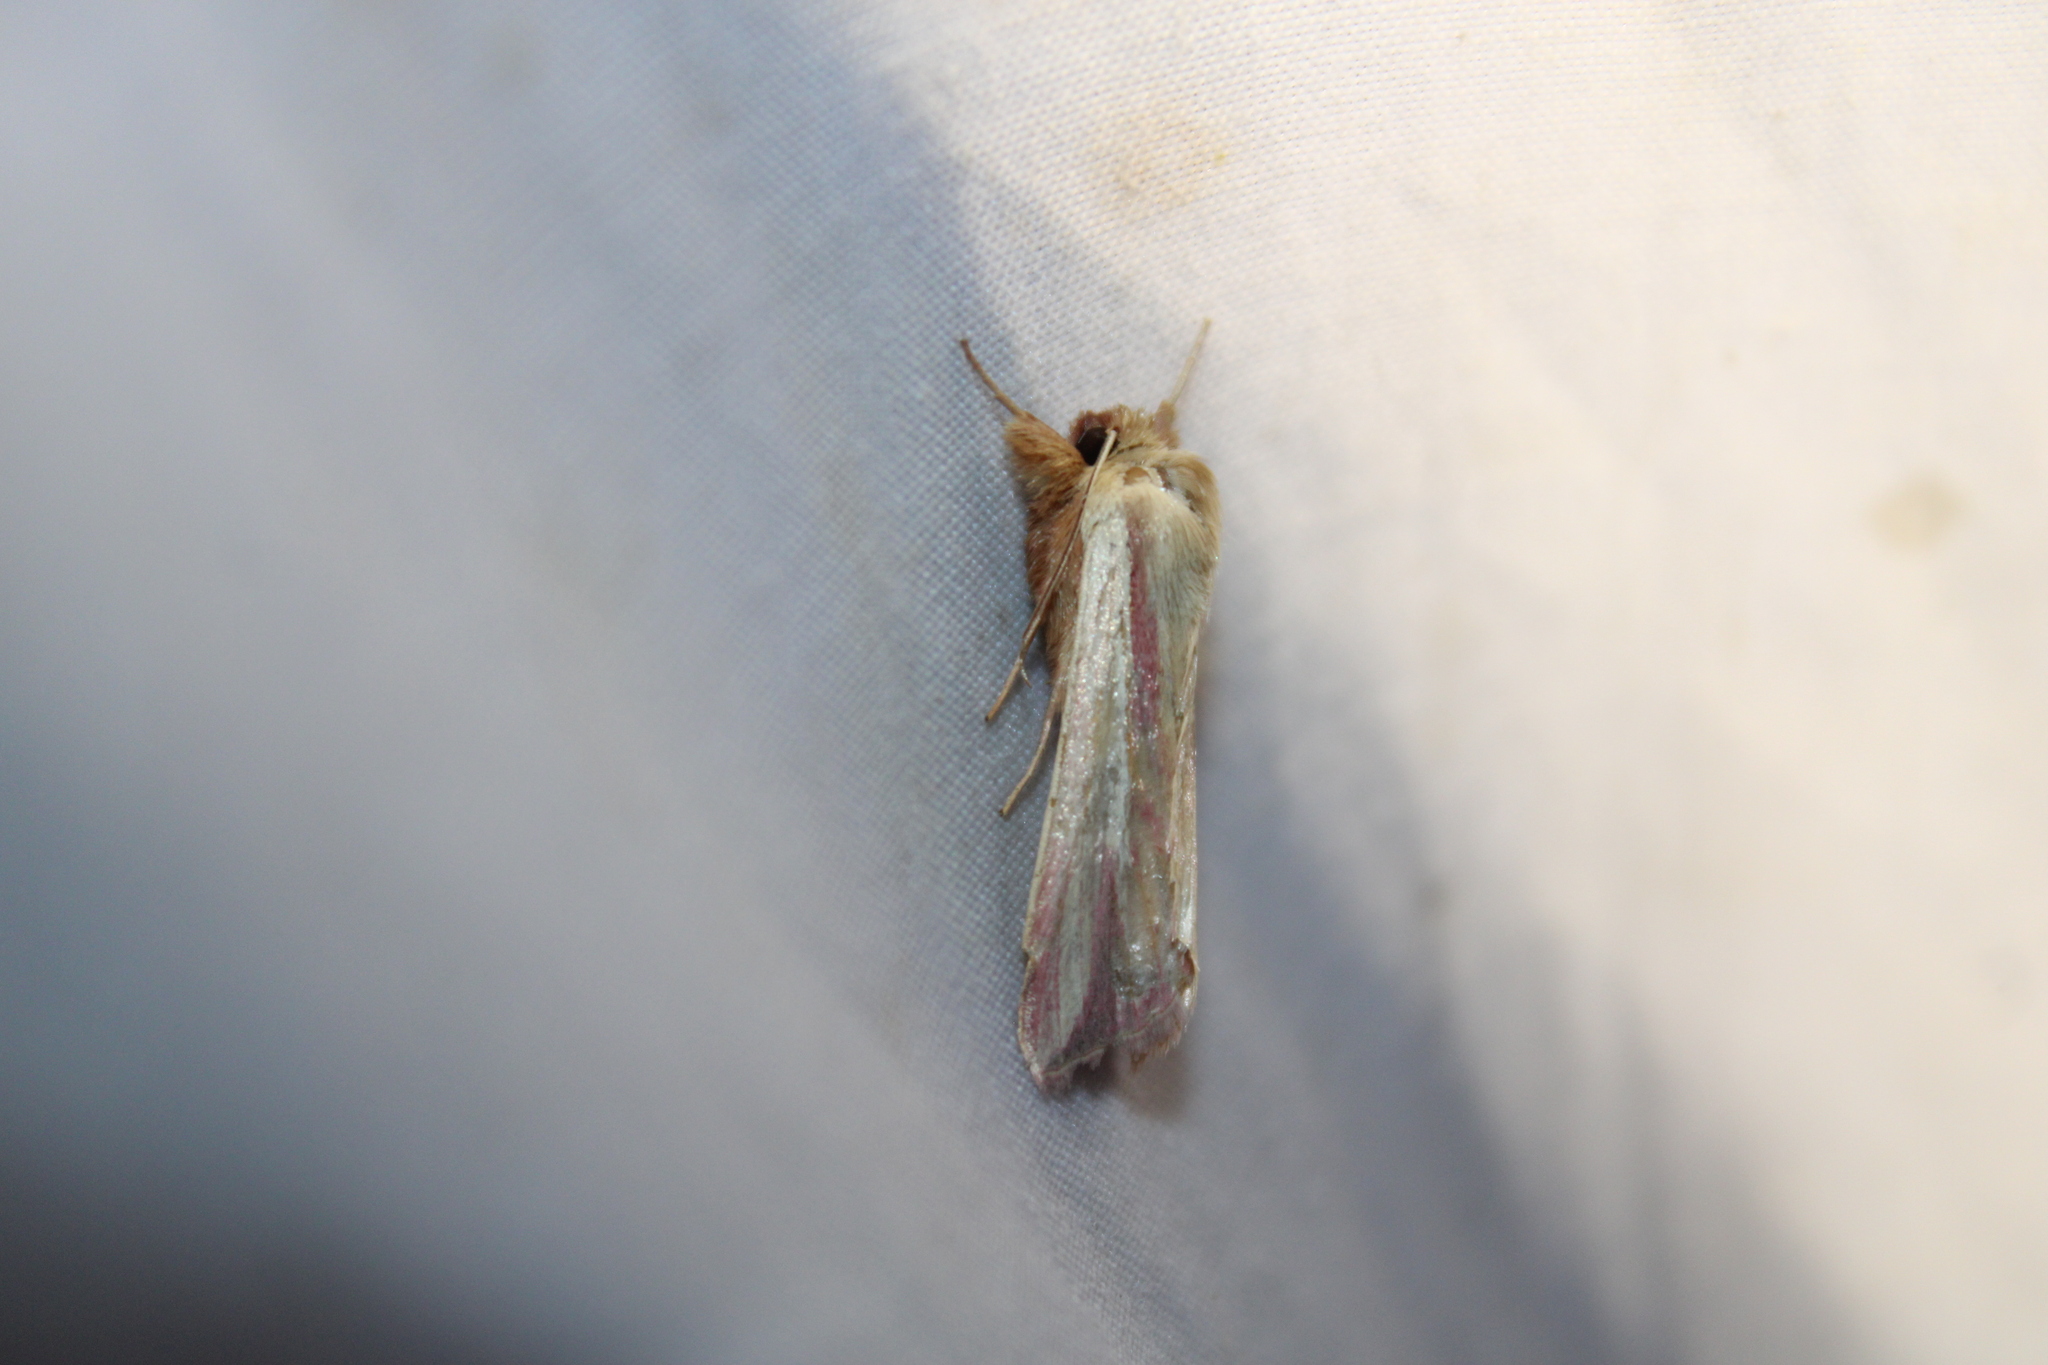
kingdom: Animalia
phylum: Arthropoda
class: Insecta
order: Lepidoptera
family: Noctuidae
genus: Dargida
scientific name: Dargida rubripennis
